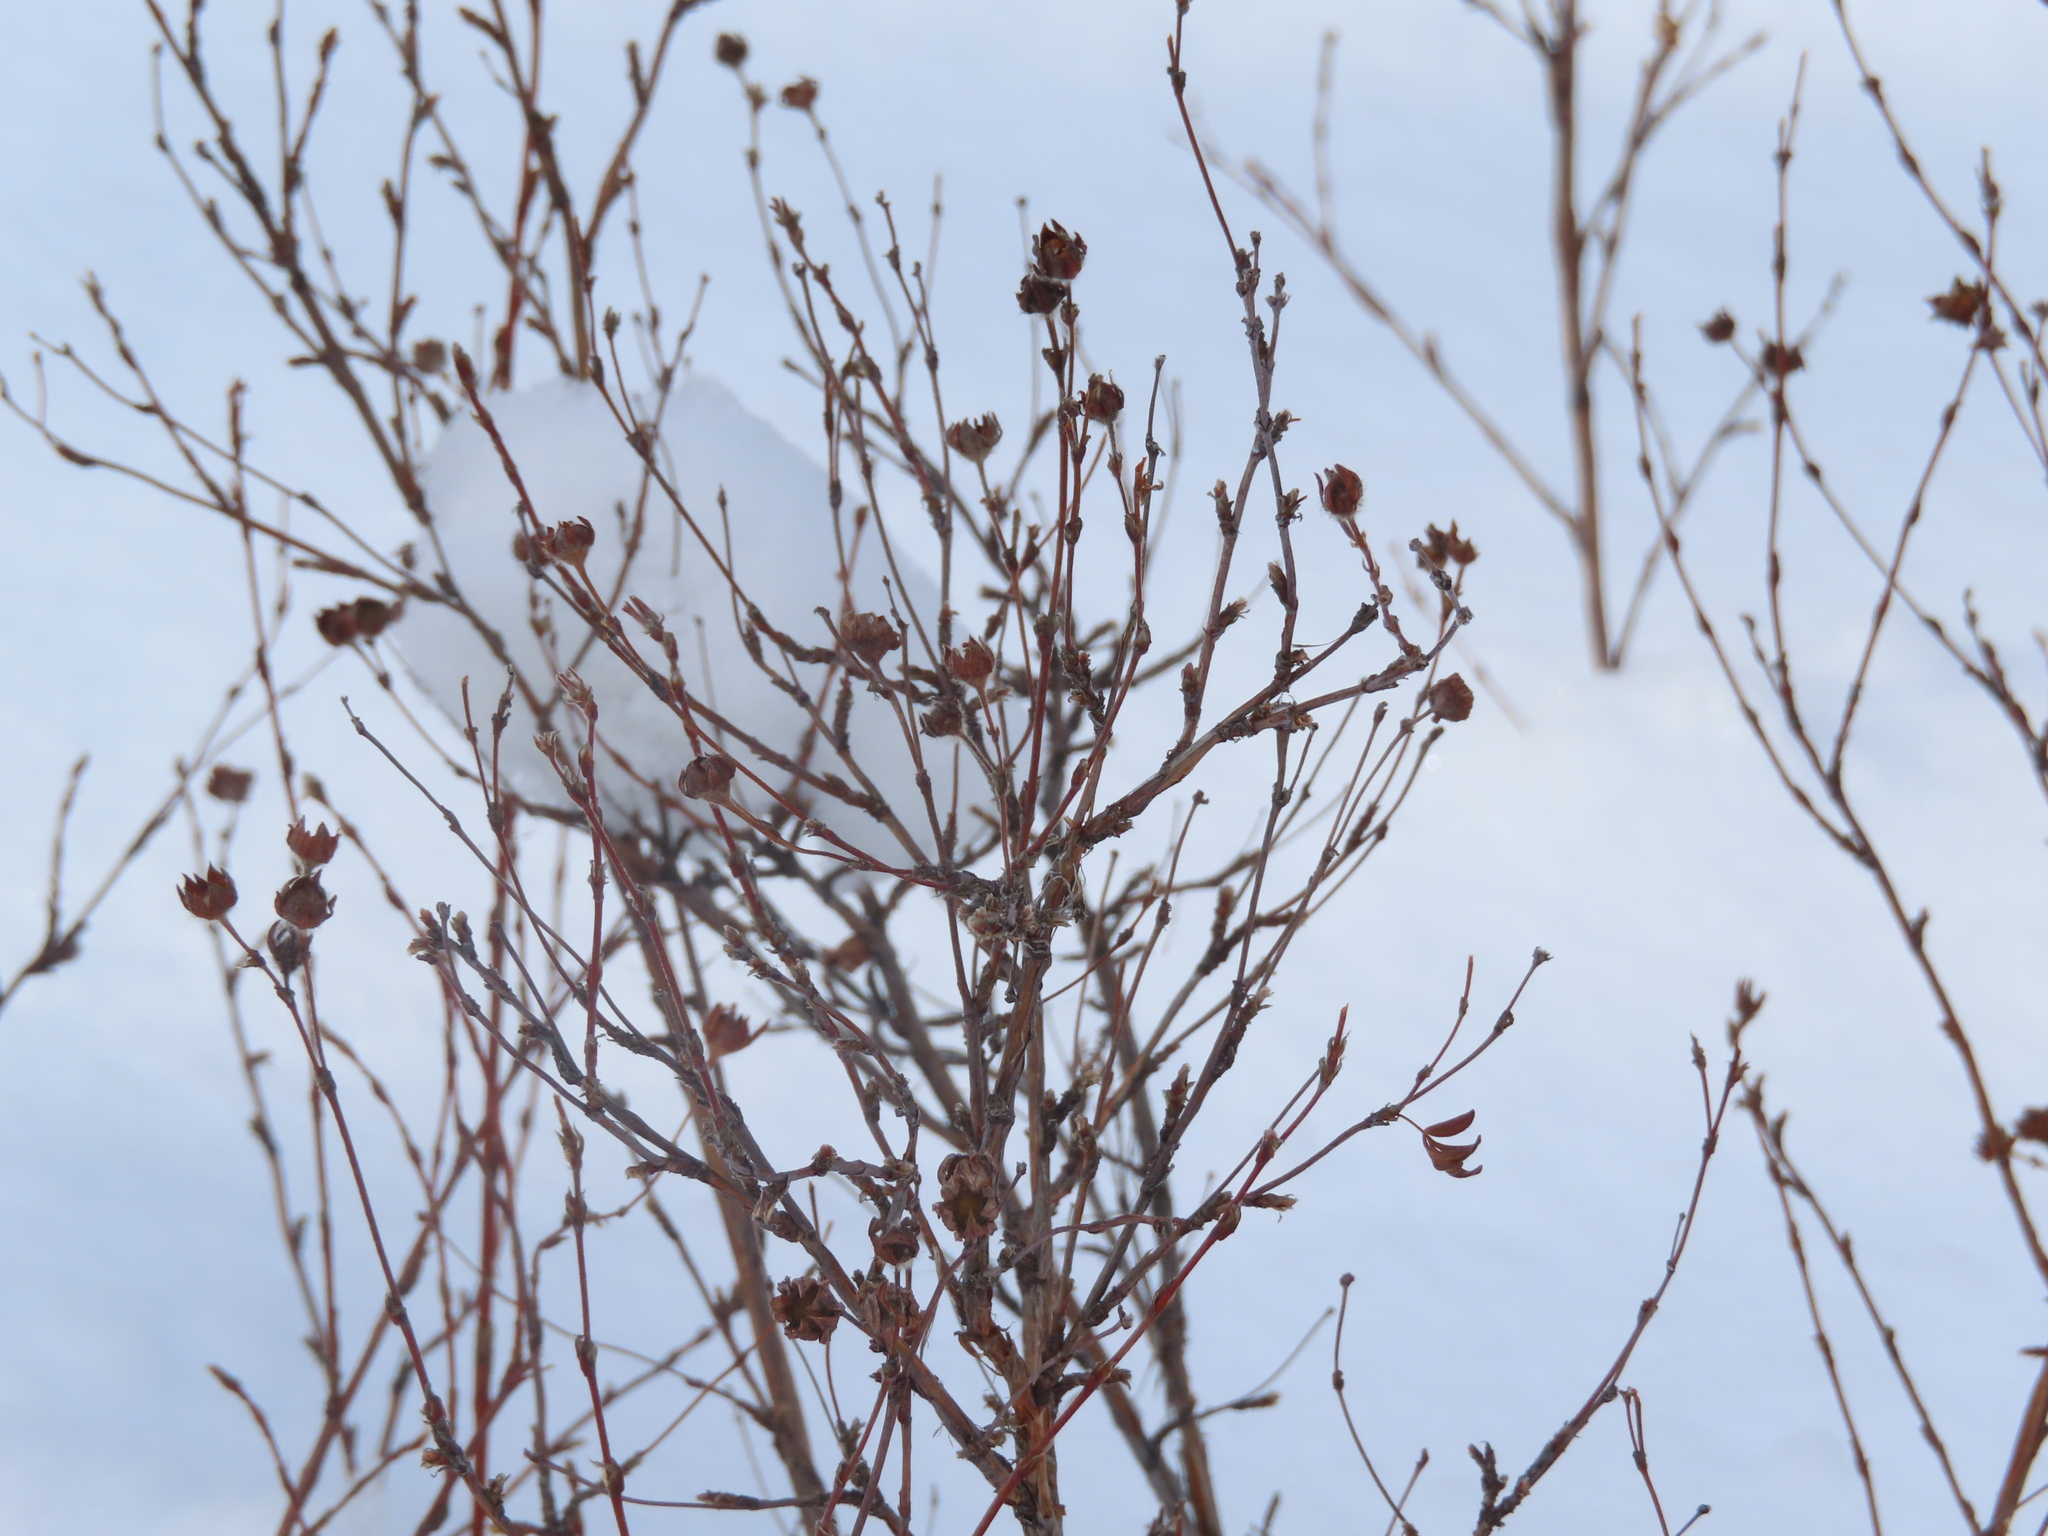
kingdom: Plantae
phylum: Tracheophyta
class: Magnoliopsida
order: Rosales
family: Rosaceae
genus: Dasiphora
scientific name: Dasiphora fruticosa
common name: Shrubby cinquefoil
